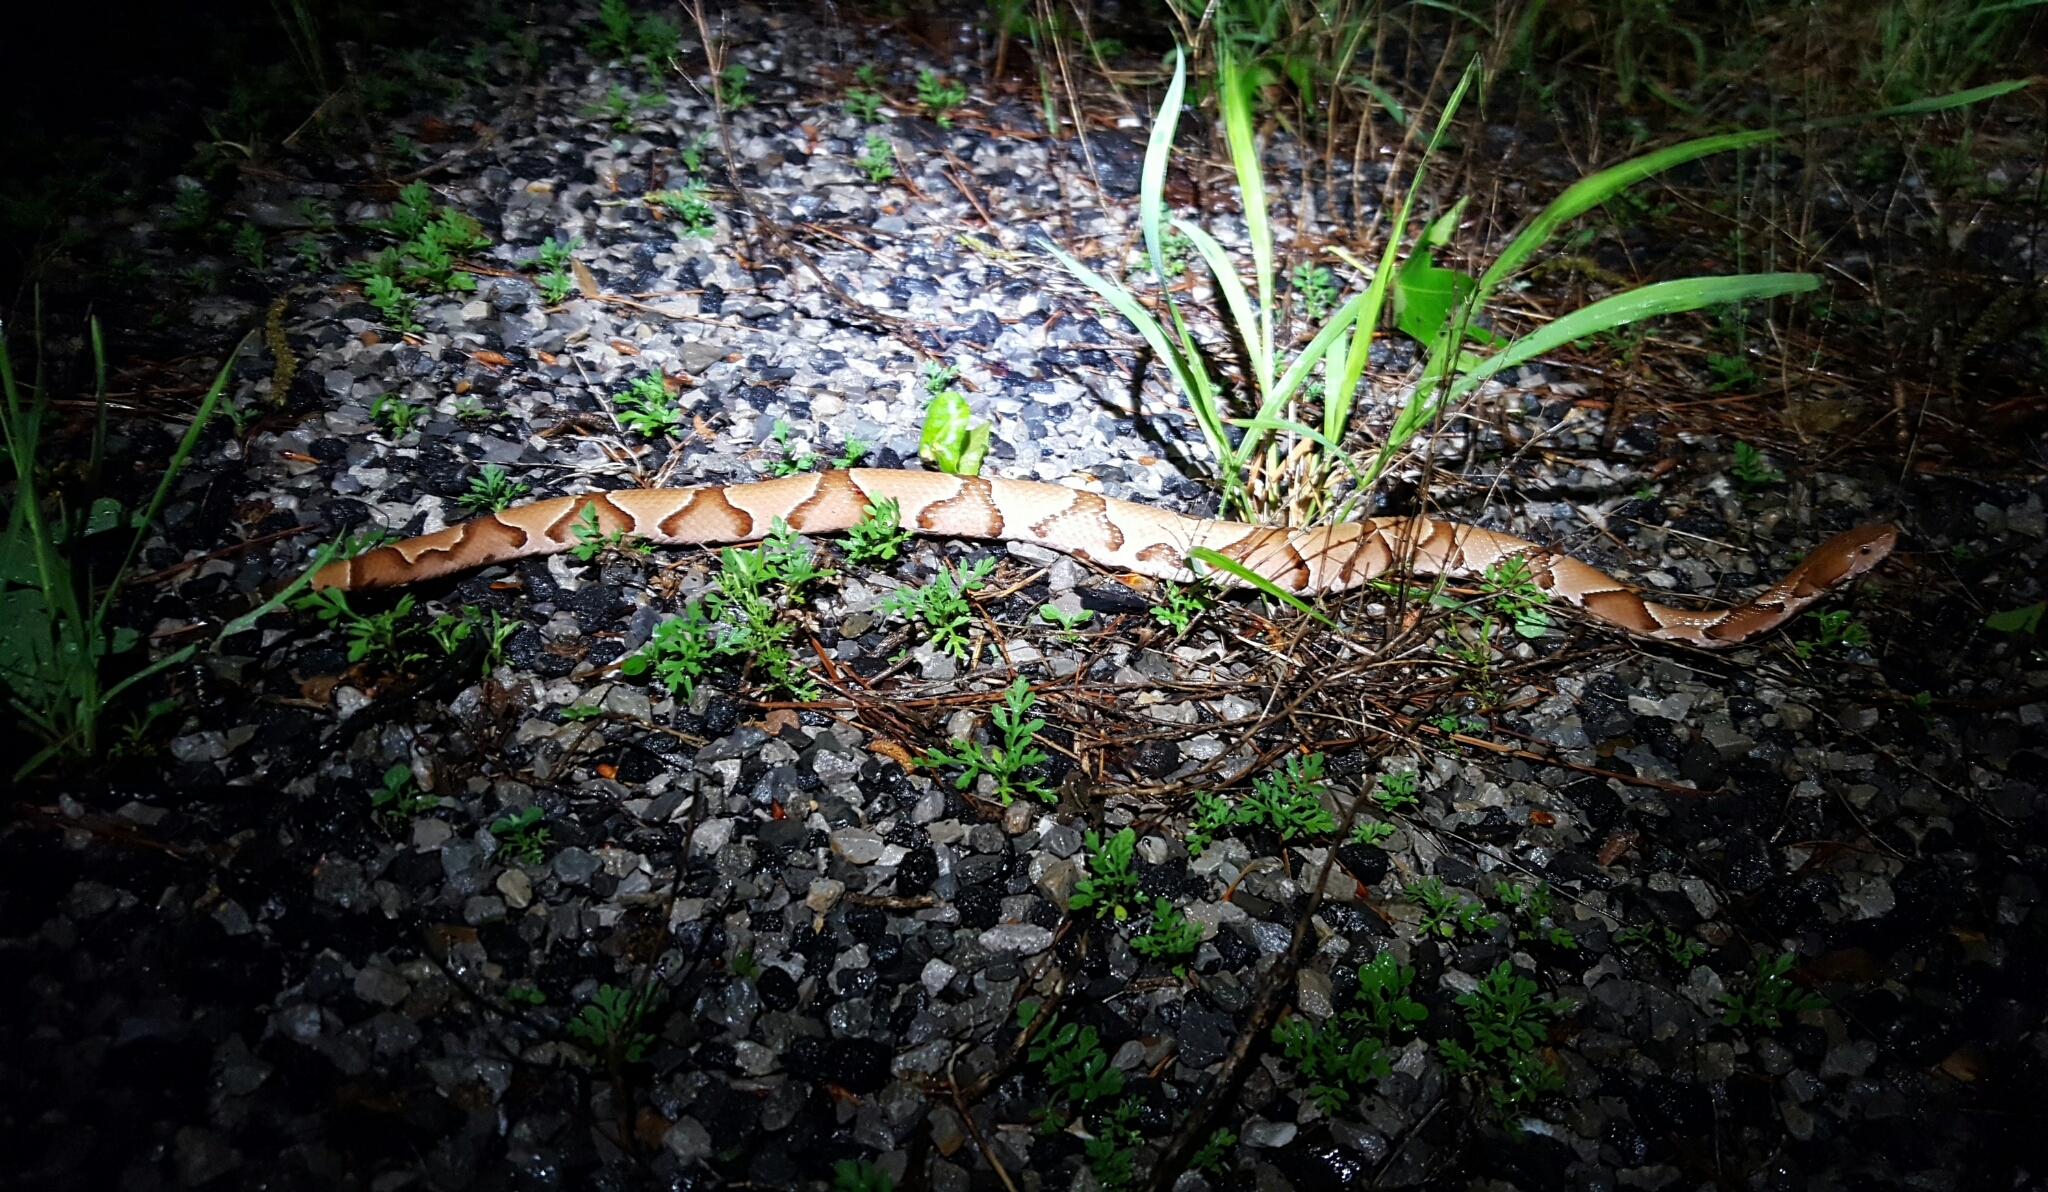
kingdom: Animalia
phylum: Chordata
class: Squamata
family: Viperidae
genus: Agkistrodon
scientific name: Agkistrodon contortrix
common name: Northern copperhead
